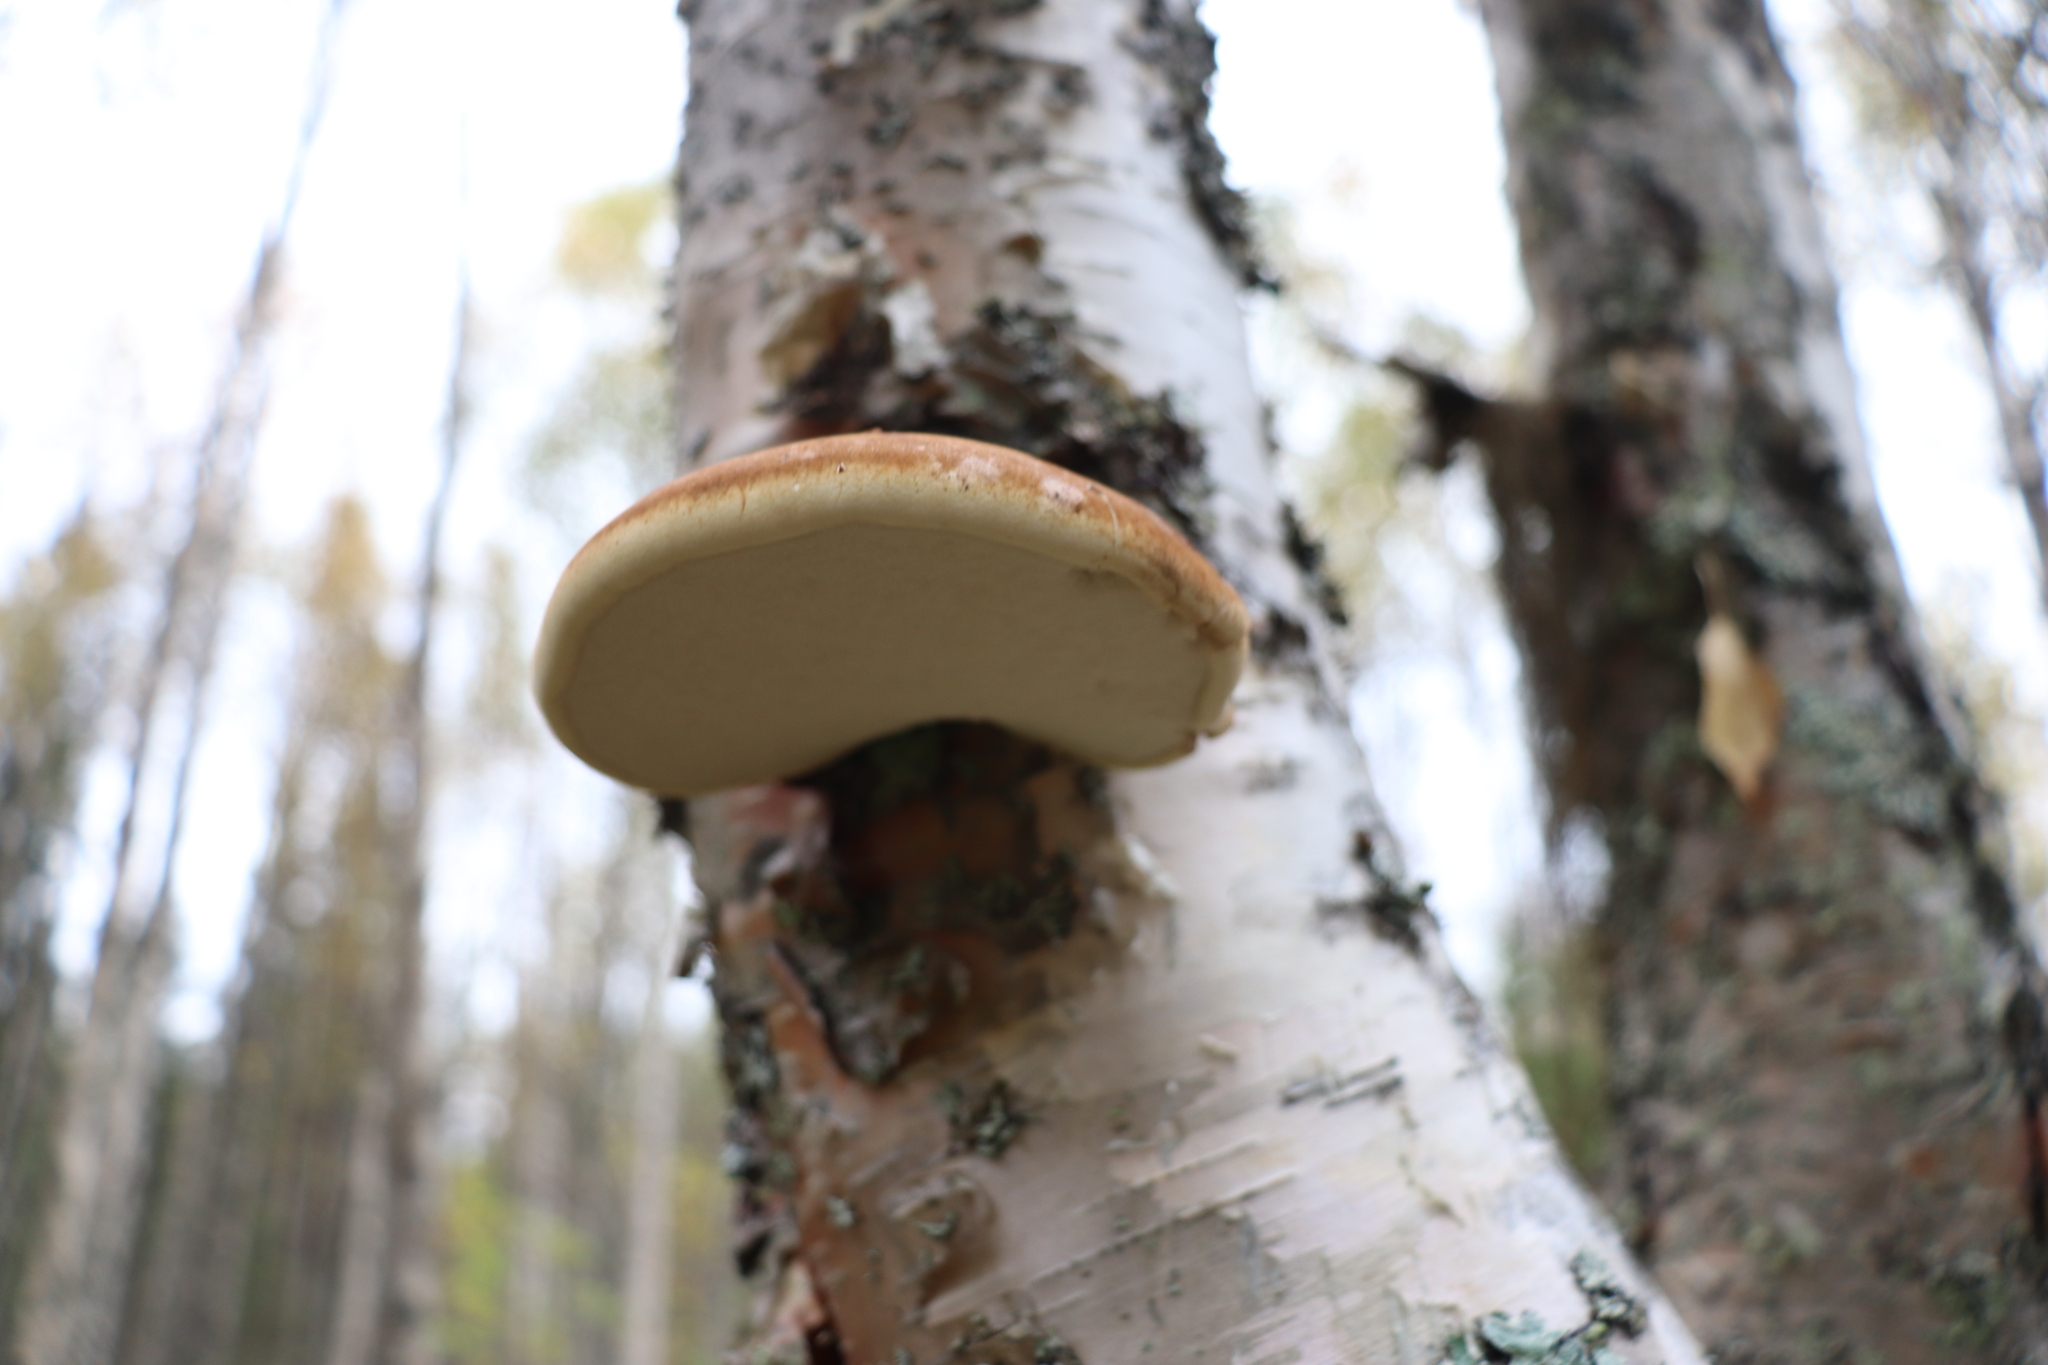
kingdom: Fungi
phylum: Basidiomycota
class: Agaricomycetes
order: Polyporales
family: Fomitopsidaceae
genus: Fomitopsis
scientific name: Fomitopsis betulina
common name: Birch polypore
